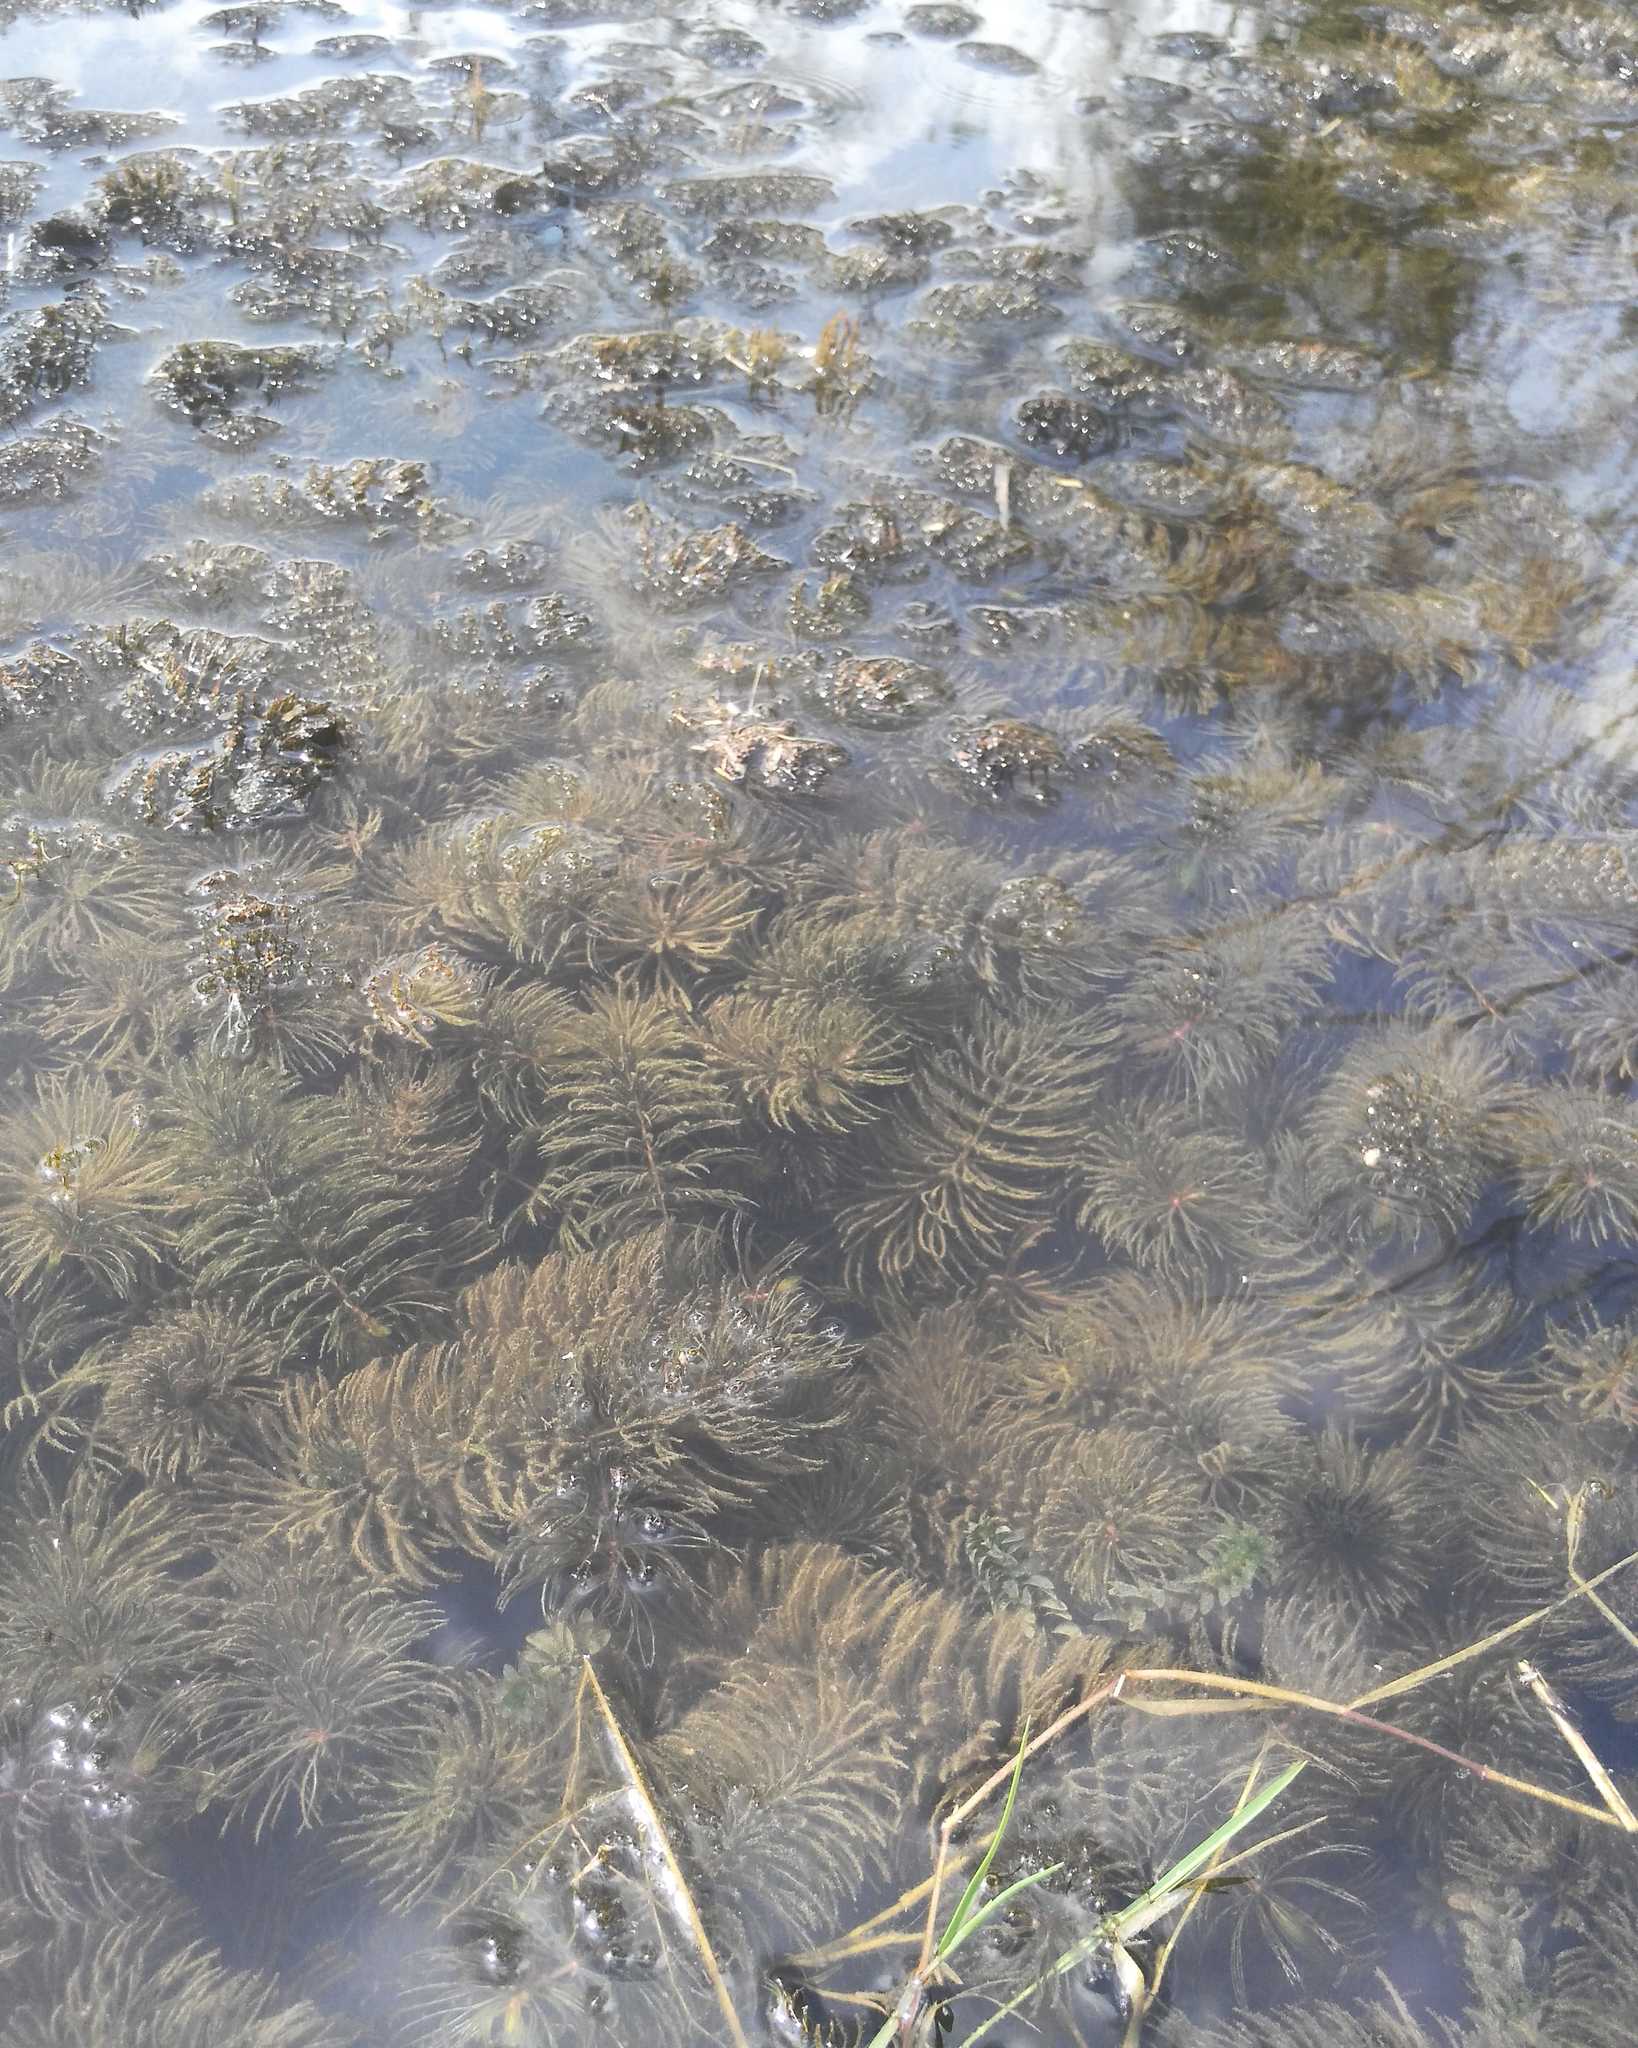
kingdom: Plantae
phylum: Tracheophyta
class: Magnoliopsida
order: Ceratophyllales
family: Ceratophyllaceae
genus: Ceratophyllum
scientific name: Ceratophyllum demersum
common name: Rigid hornwort
